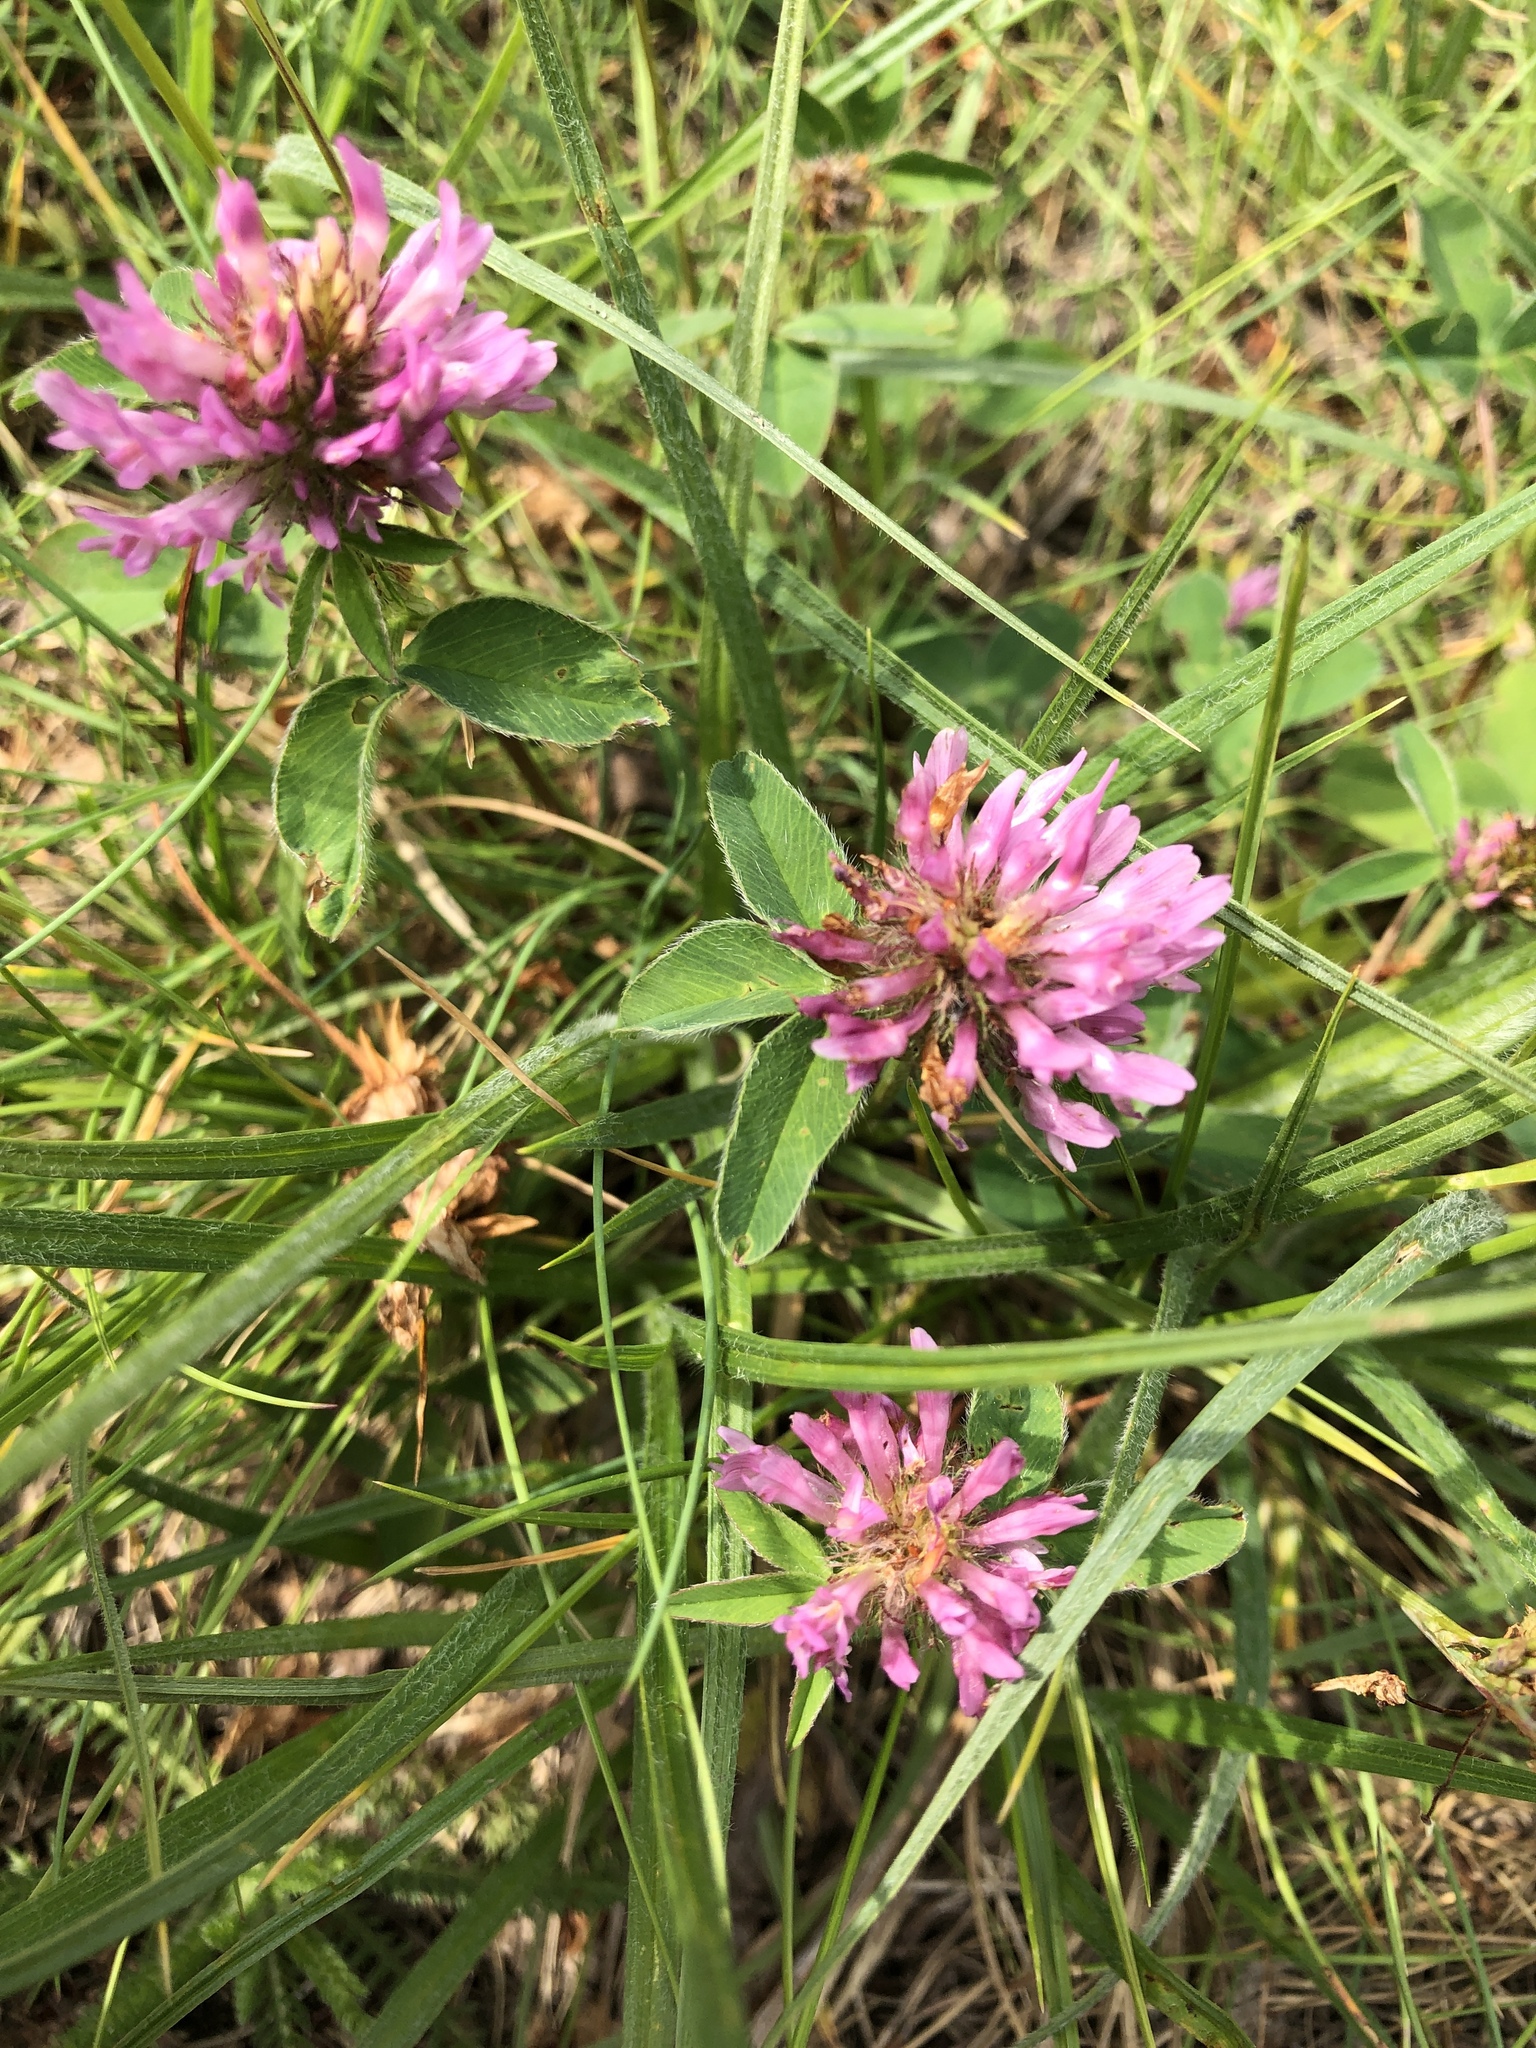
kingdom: Plantae
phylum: Tracheophyta
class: Magnoliopsida
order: Fabales
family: Fabaceae
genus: Trifolium
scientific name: Trifolium pratense
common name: Red clover
